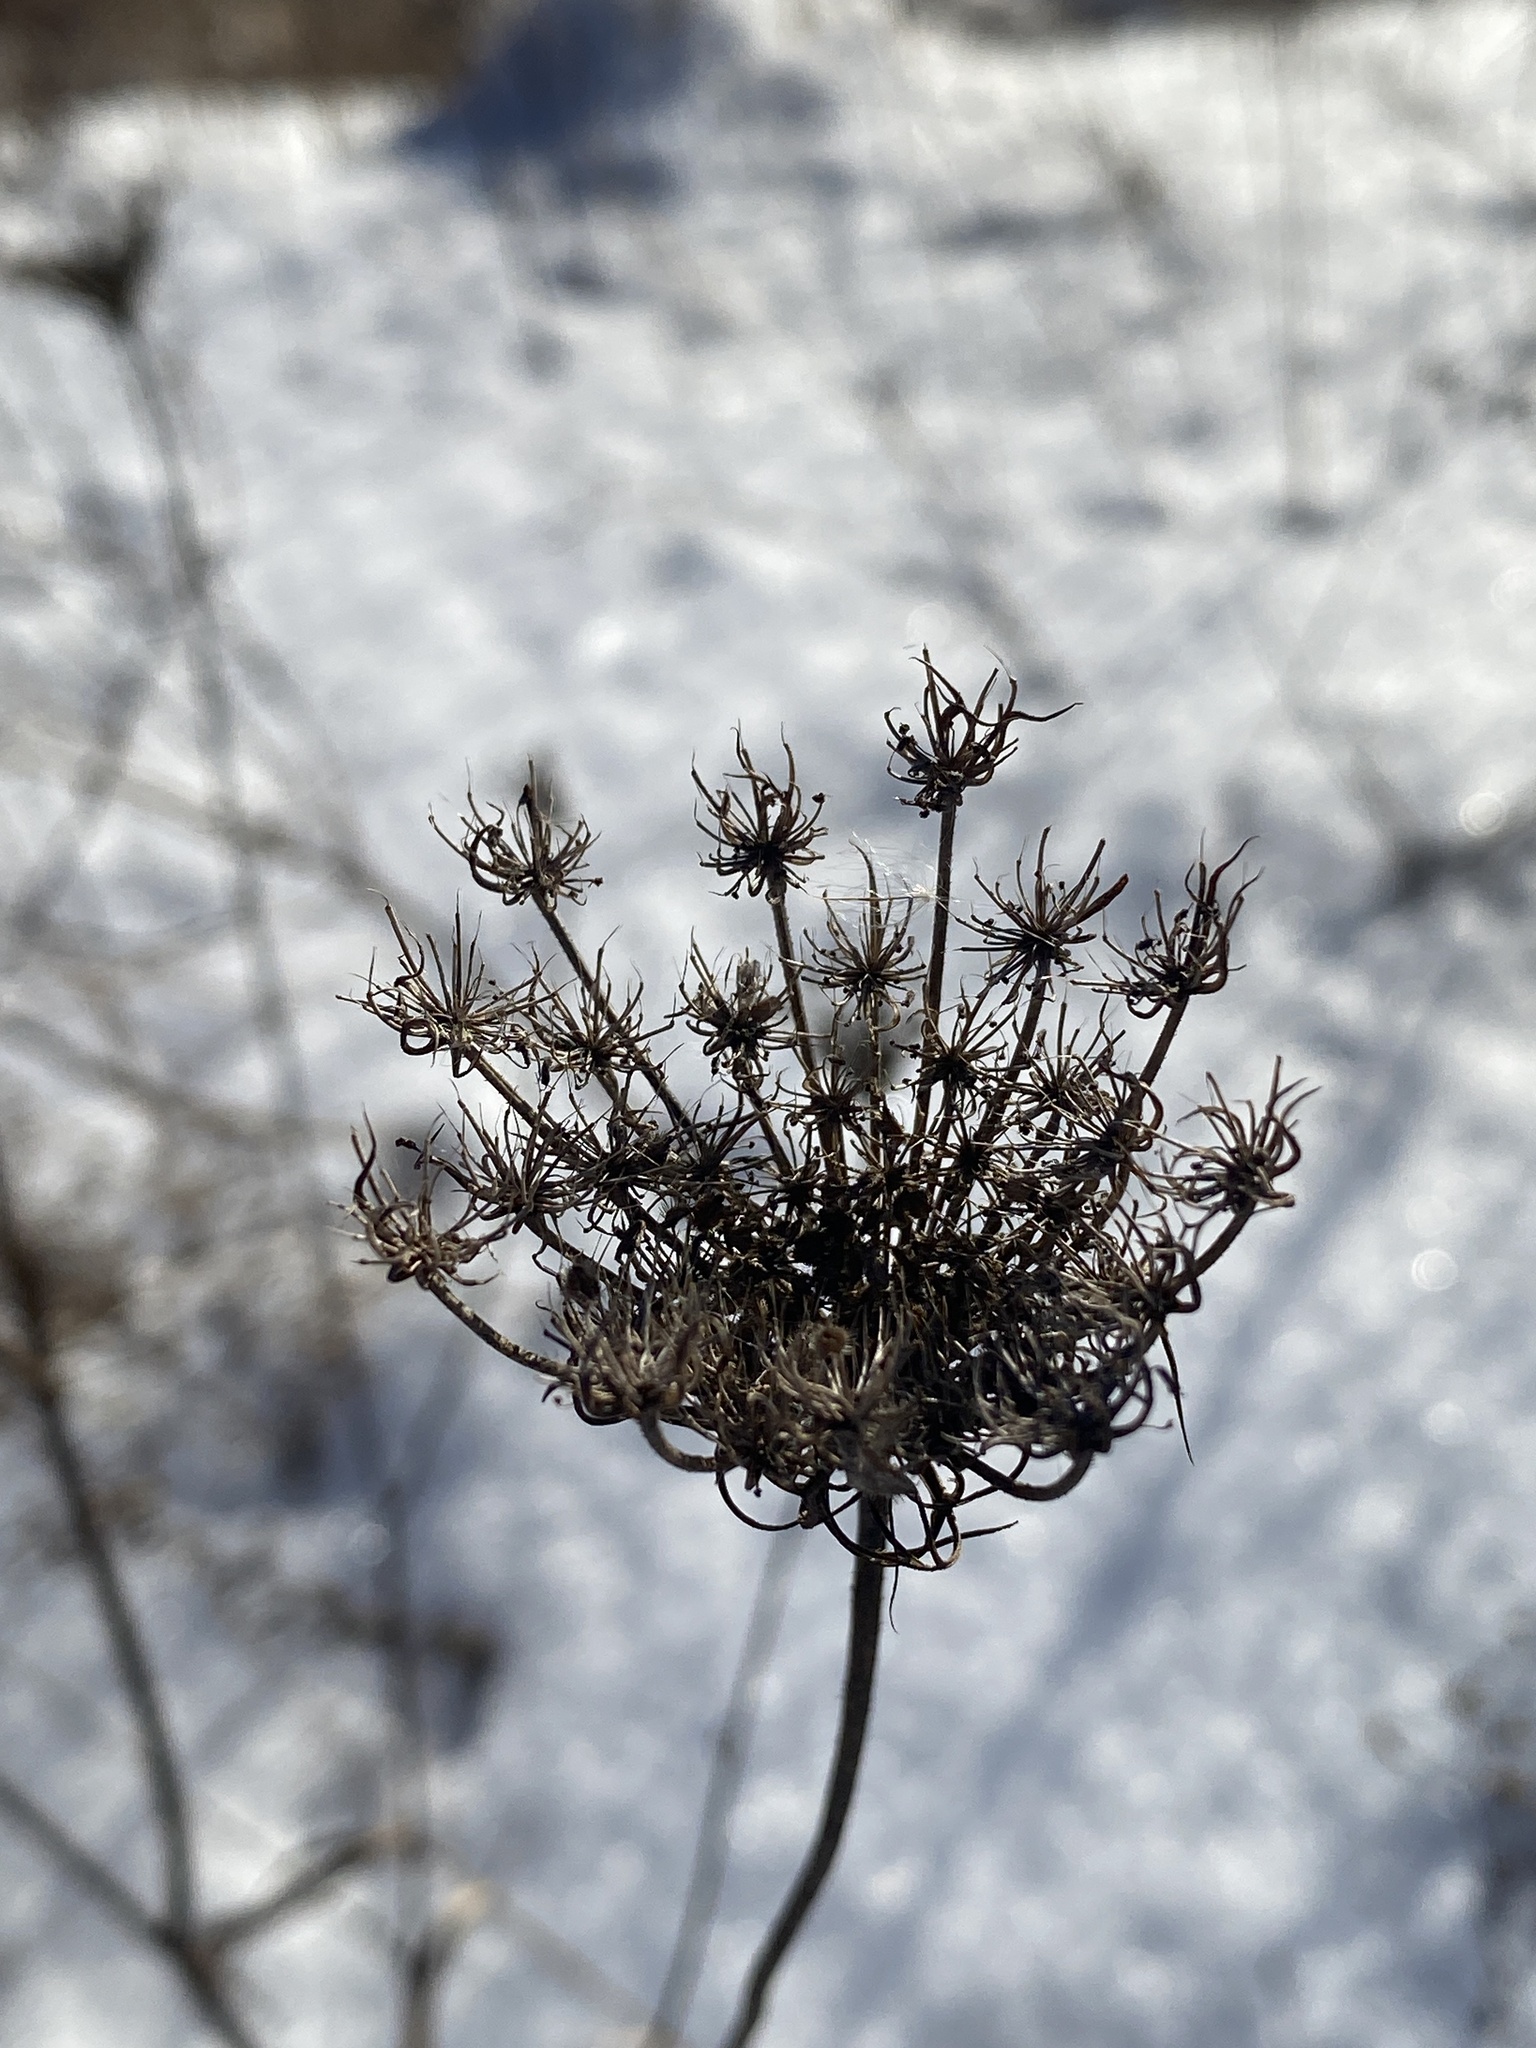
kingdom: Plantae
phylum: Tracheophyta
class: Magnoliopsida
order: Apiales
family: Apiaceae
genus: Daucus
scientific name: Daucus carota
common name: Wild carrot
